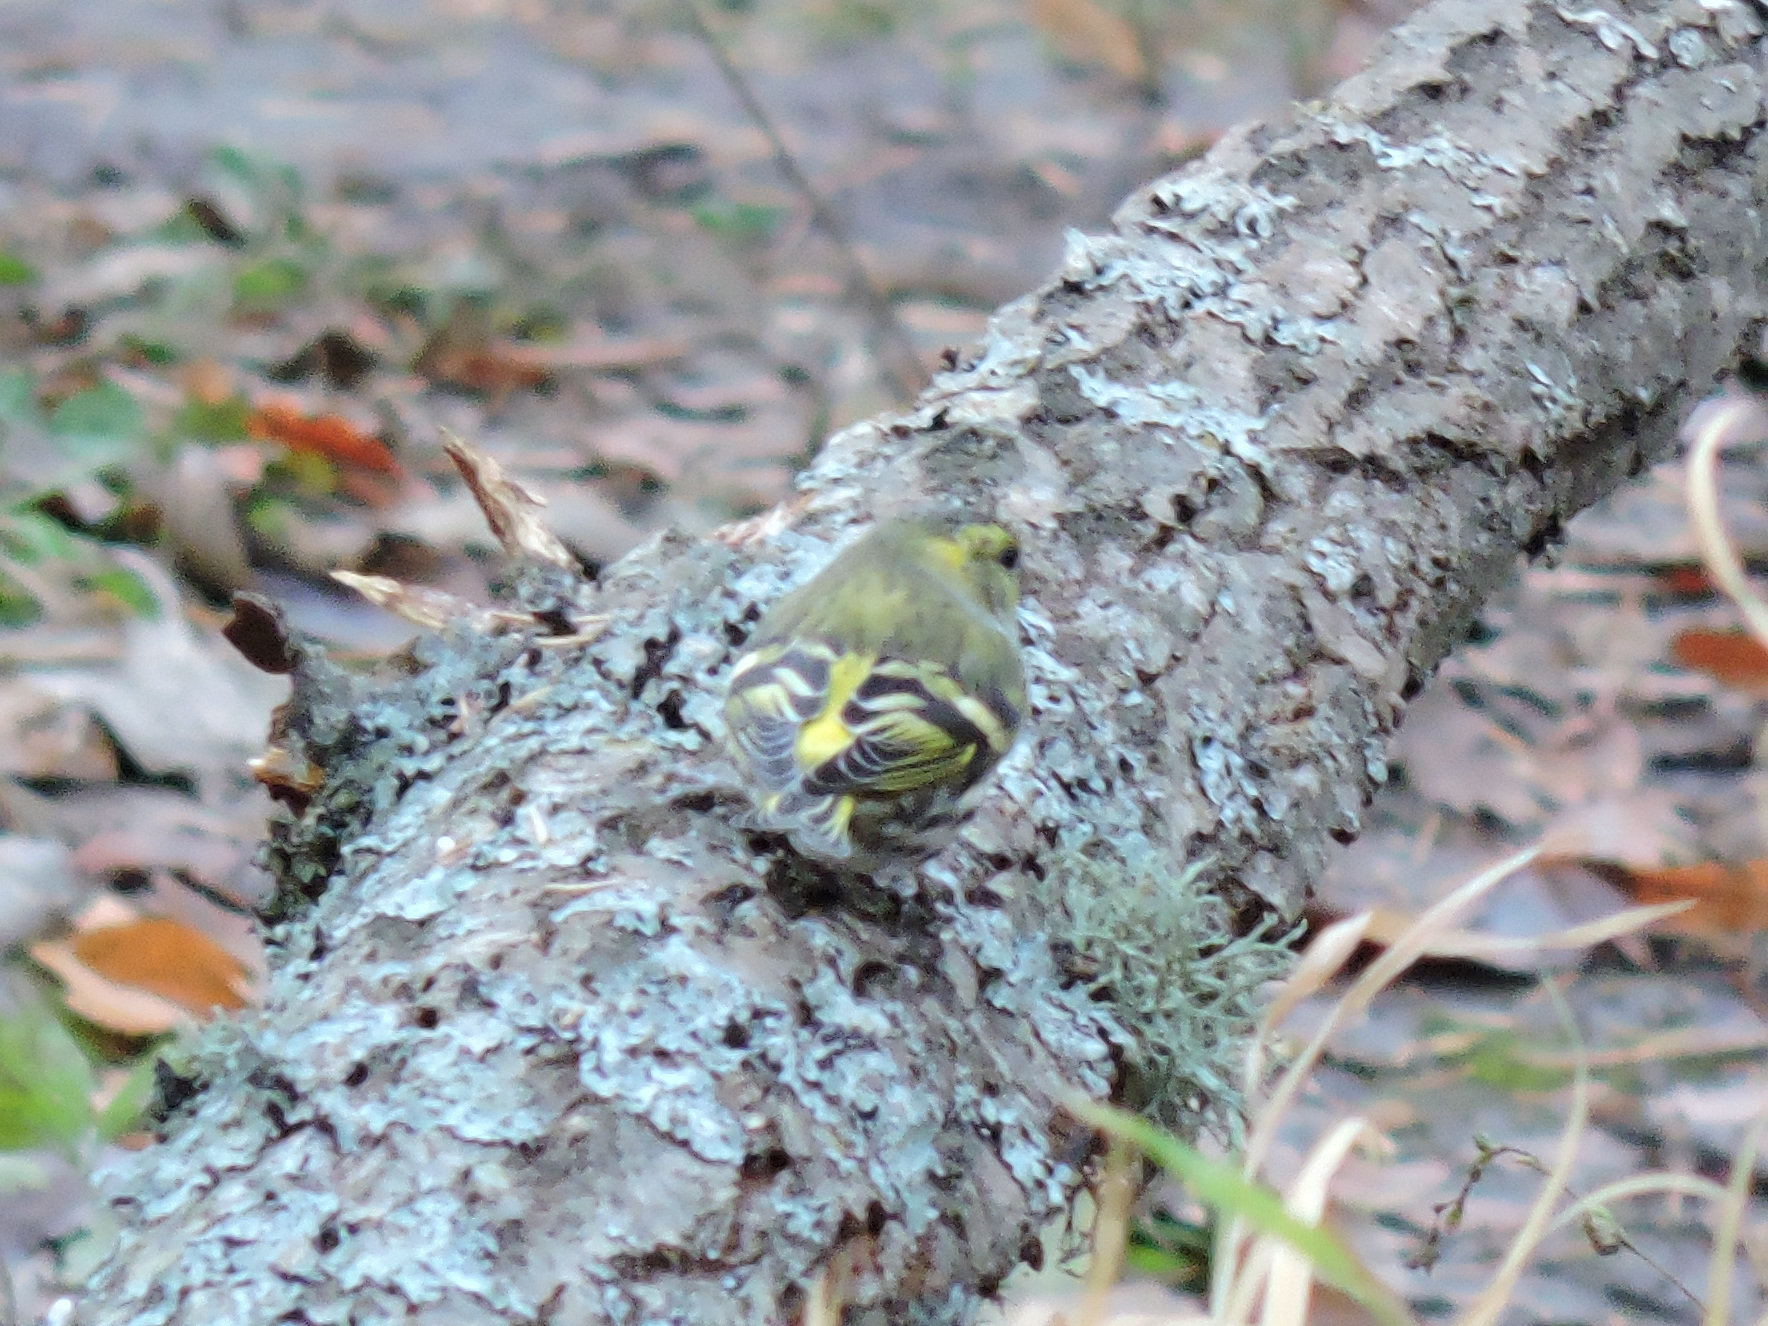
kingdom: Animalia
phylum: Chordata
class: Aves
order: Passeriformes
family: Fringillidae
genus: Spinus
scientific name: Spinus spinus
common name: Eurasian siskin
